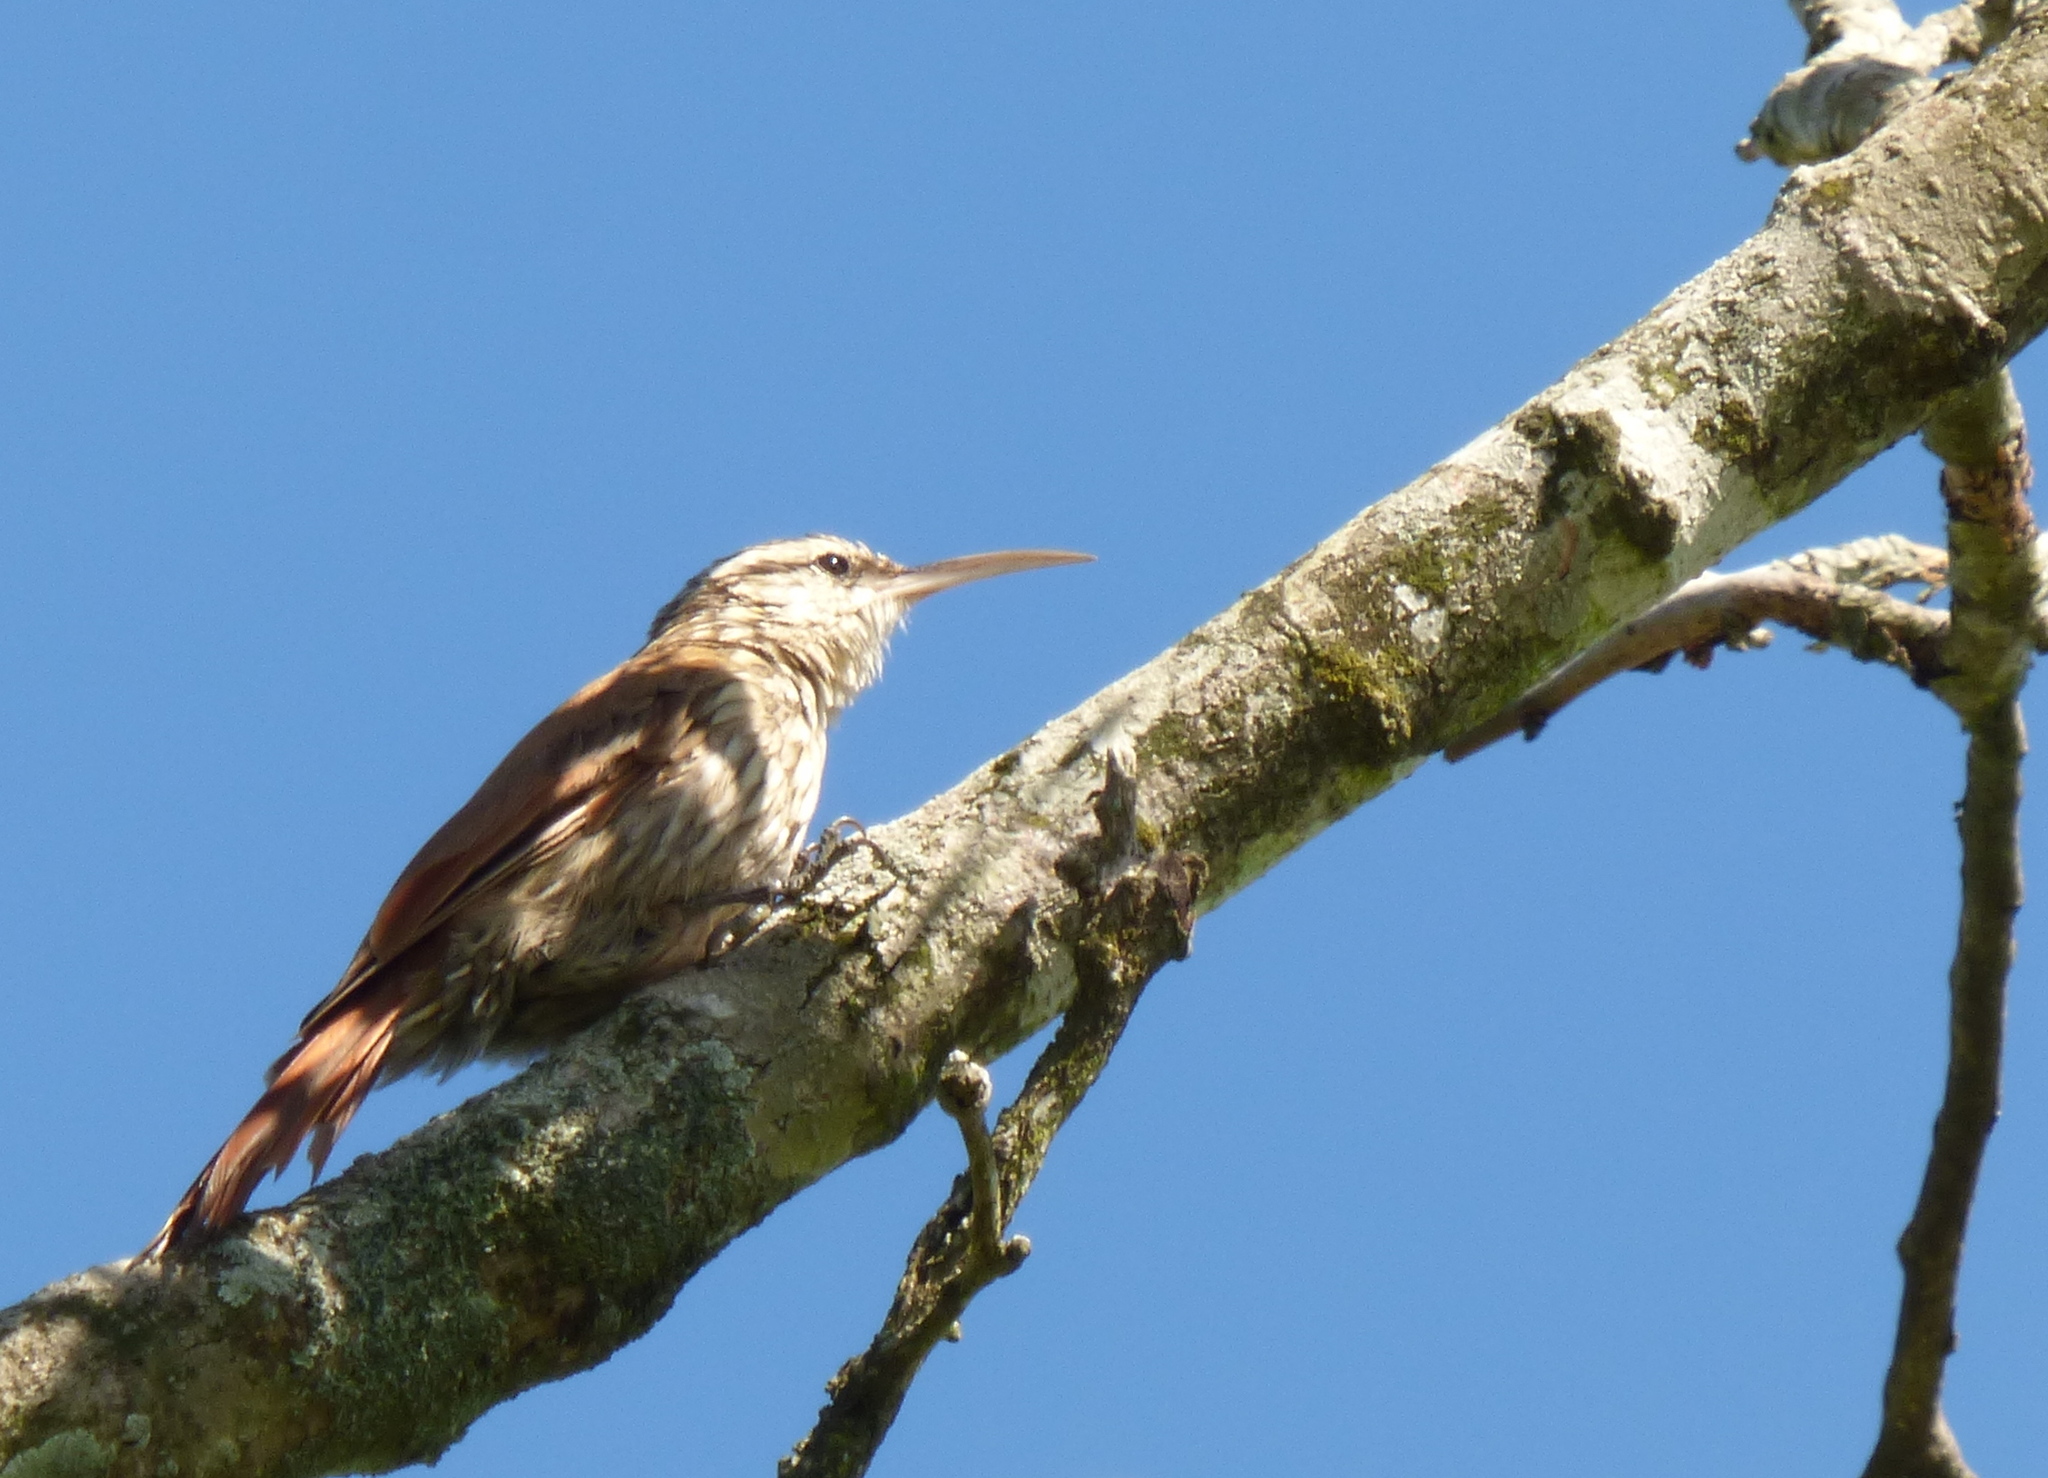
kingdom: Animalia
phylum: Chordata
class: Aves
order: Passeriformes
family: Furnariidae
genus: Lepidocolaptes
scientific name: Lepidocolaptes angustirostris
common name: Narrow-billed woodcreeper
